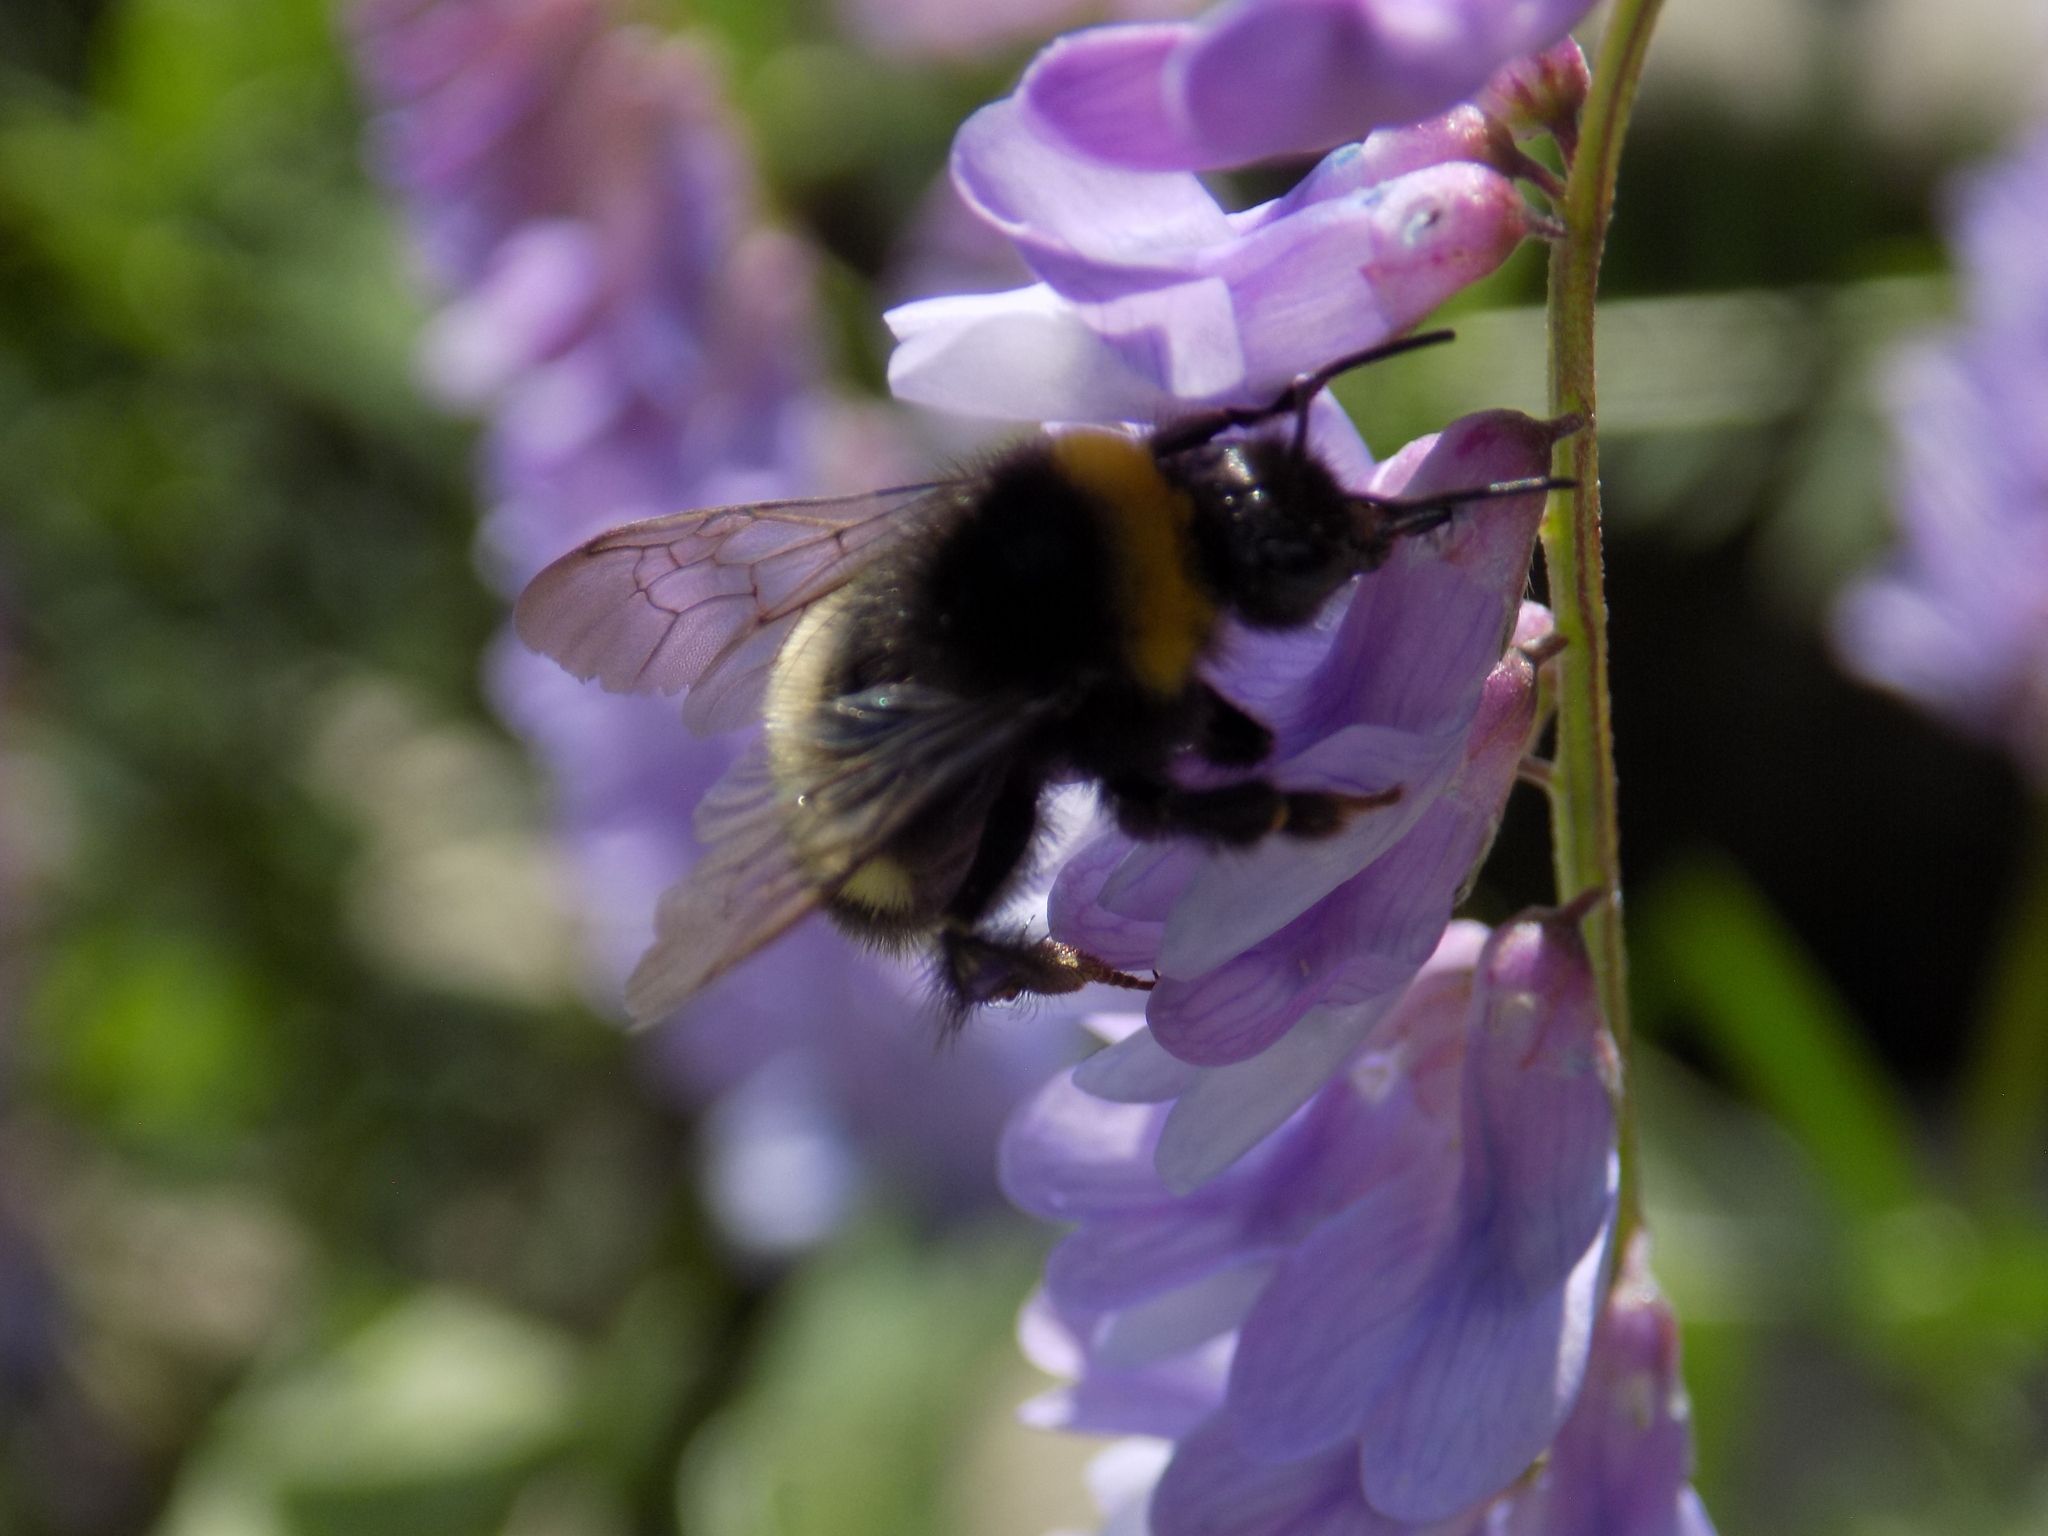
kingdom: Animalia
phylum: Arthropoda
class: Insecta
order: Hymenoptera
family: Apidae
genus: Bombus
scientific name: Bombus
